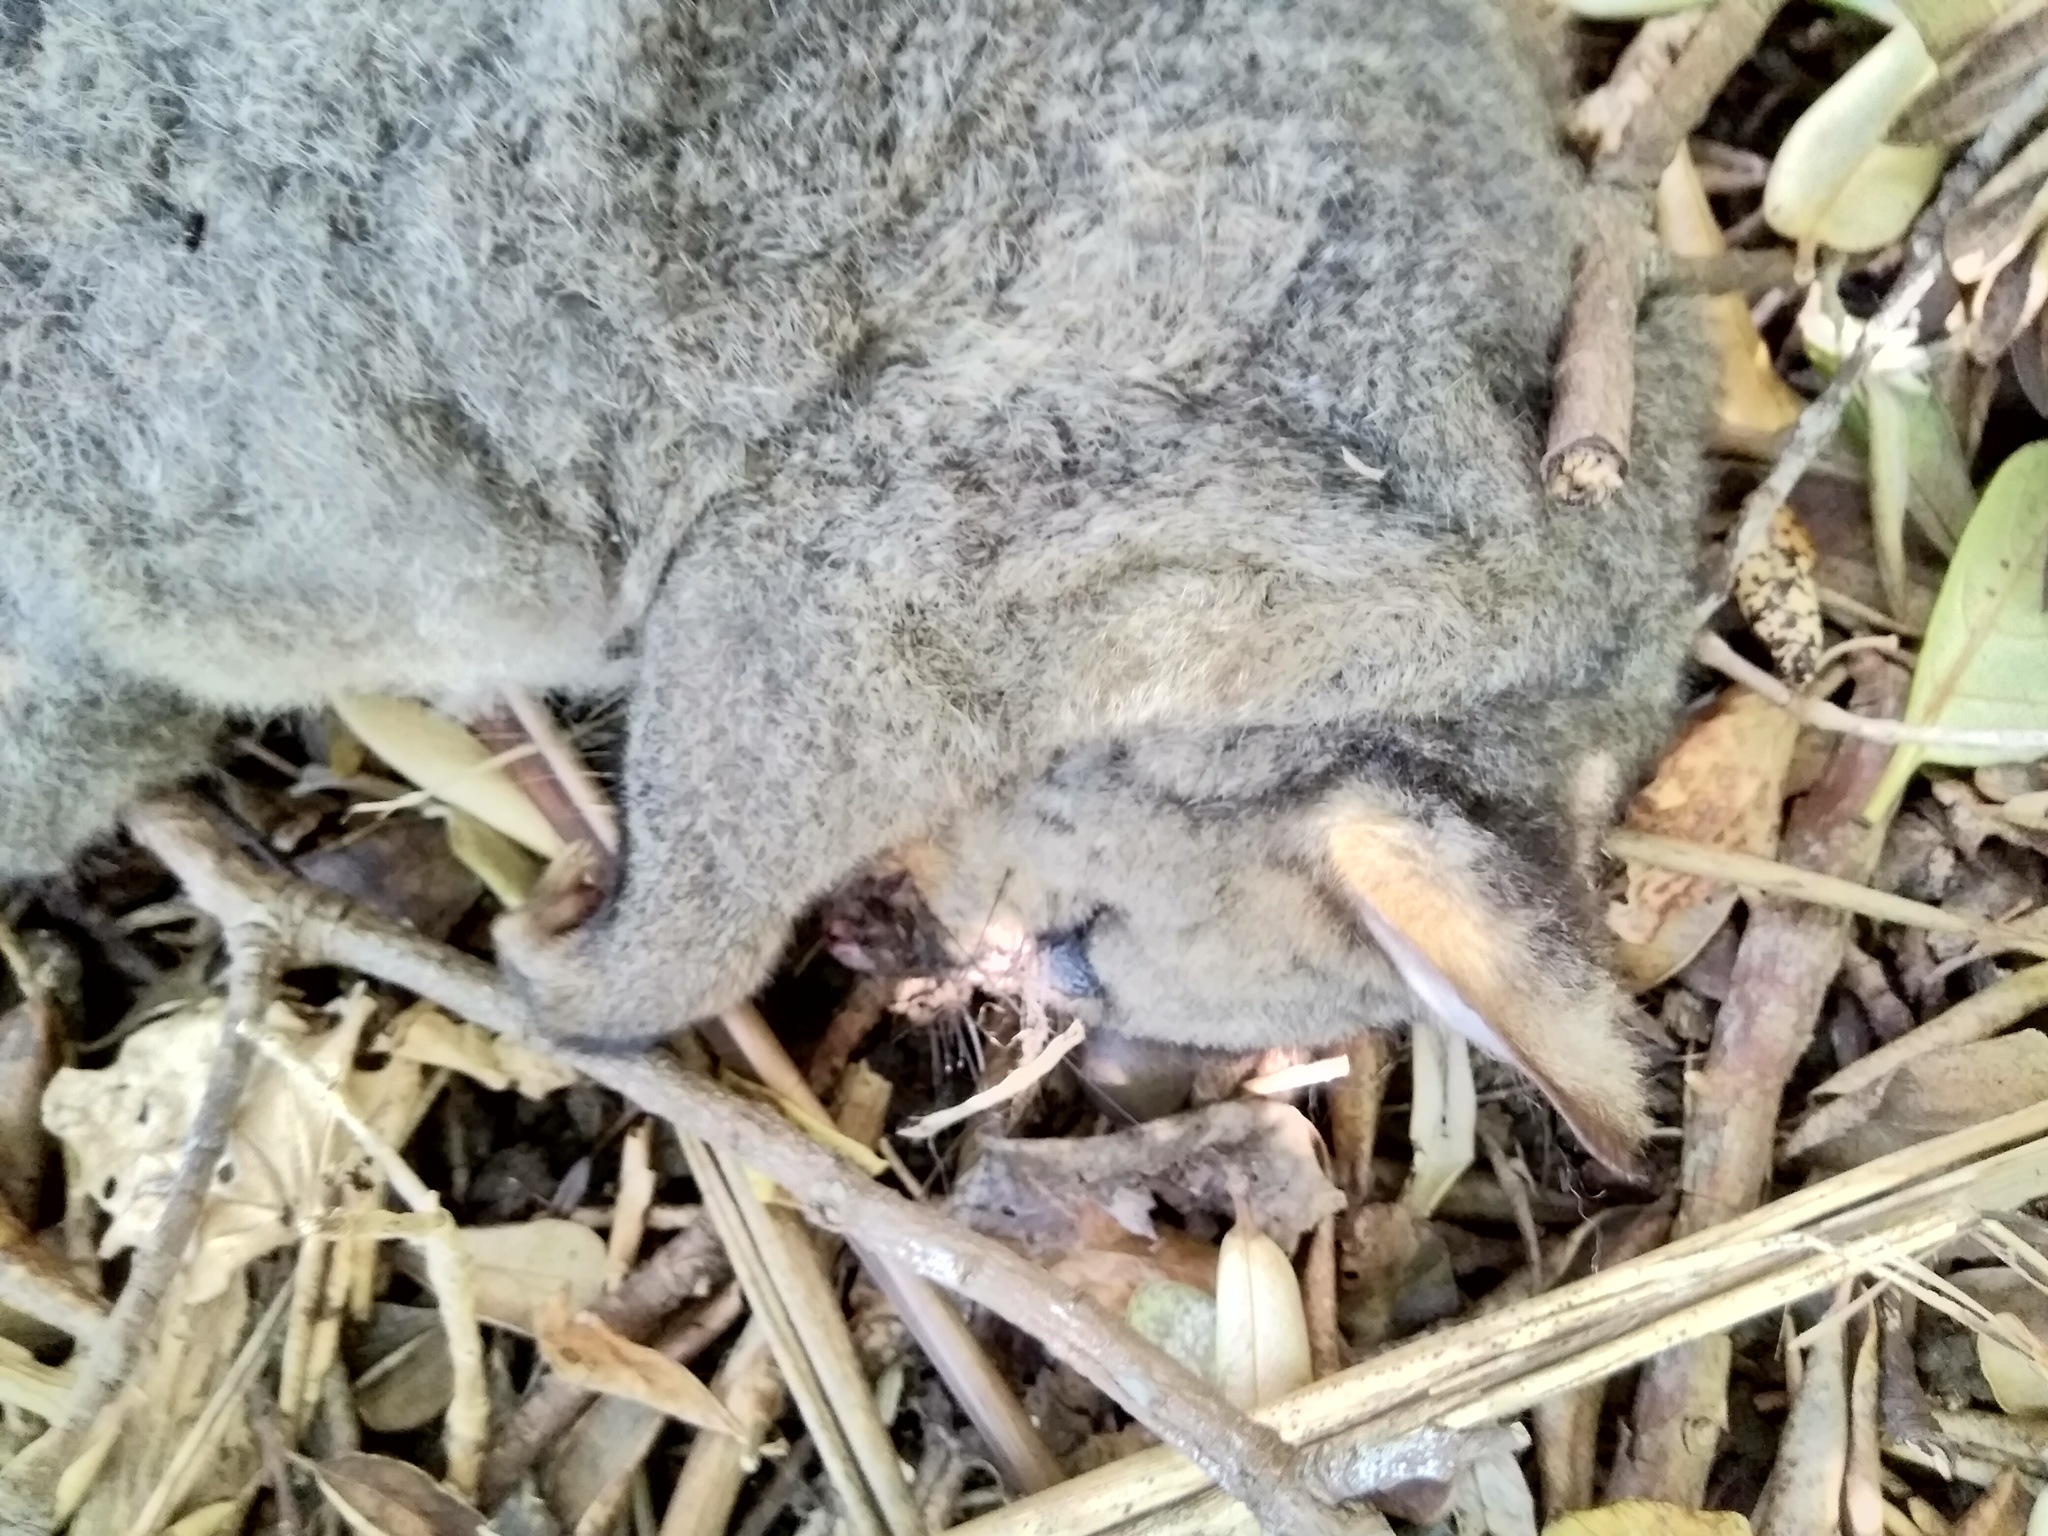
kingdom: Animalia
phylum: Chordata
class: Mammalia
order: Diprotodontia
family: Phalangeridae
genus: Trichosurus
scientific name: Trichosurus vulpecula
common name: Common brushtail
